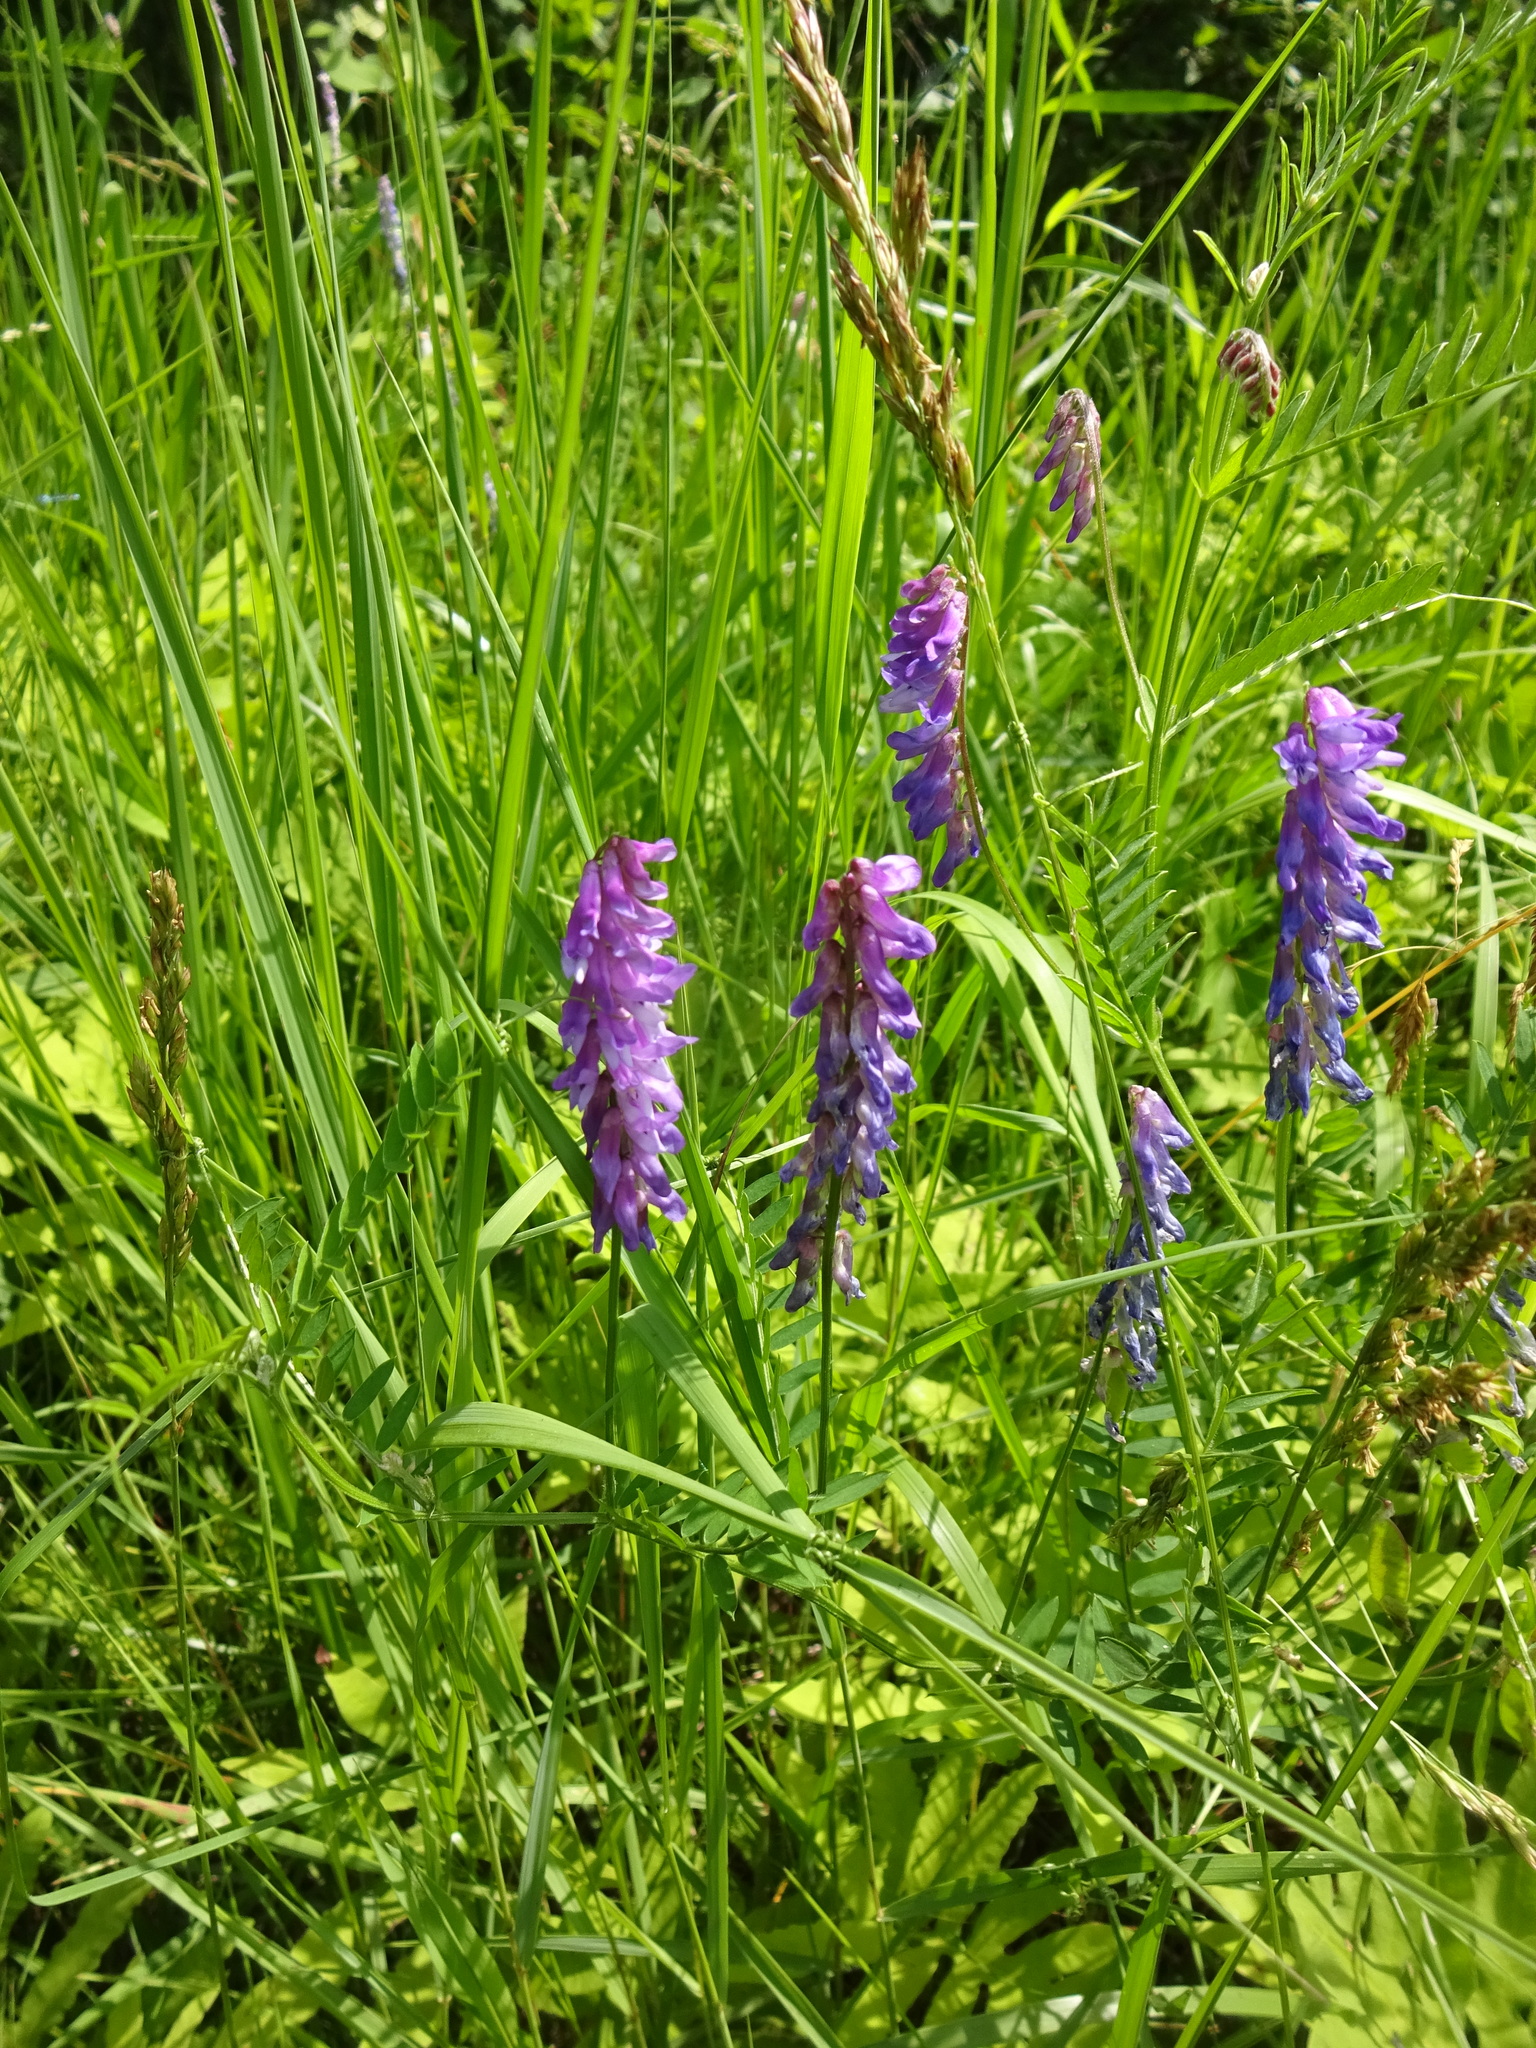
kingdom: Plantae
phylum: Tracheophyta
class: Magnoliopsida
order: Fabales
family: Fabaceae
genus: Vicia
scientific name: Vicia cracca
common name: Bird vetch
